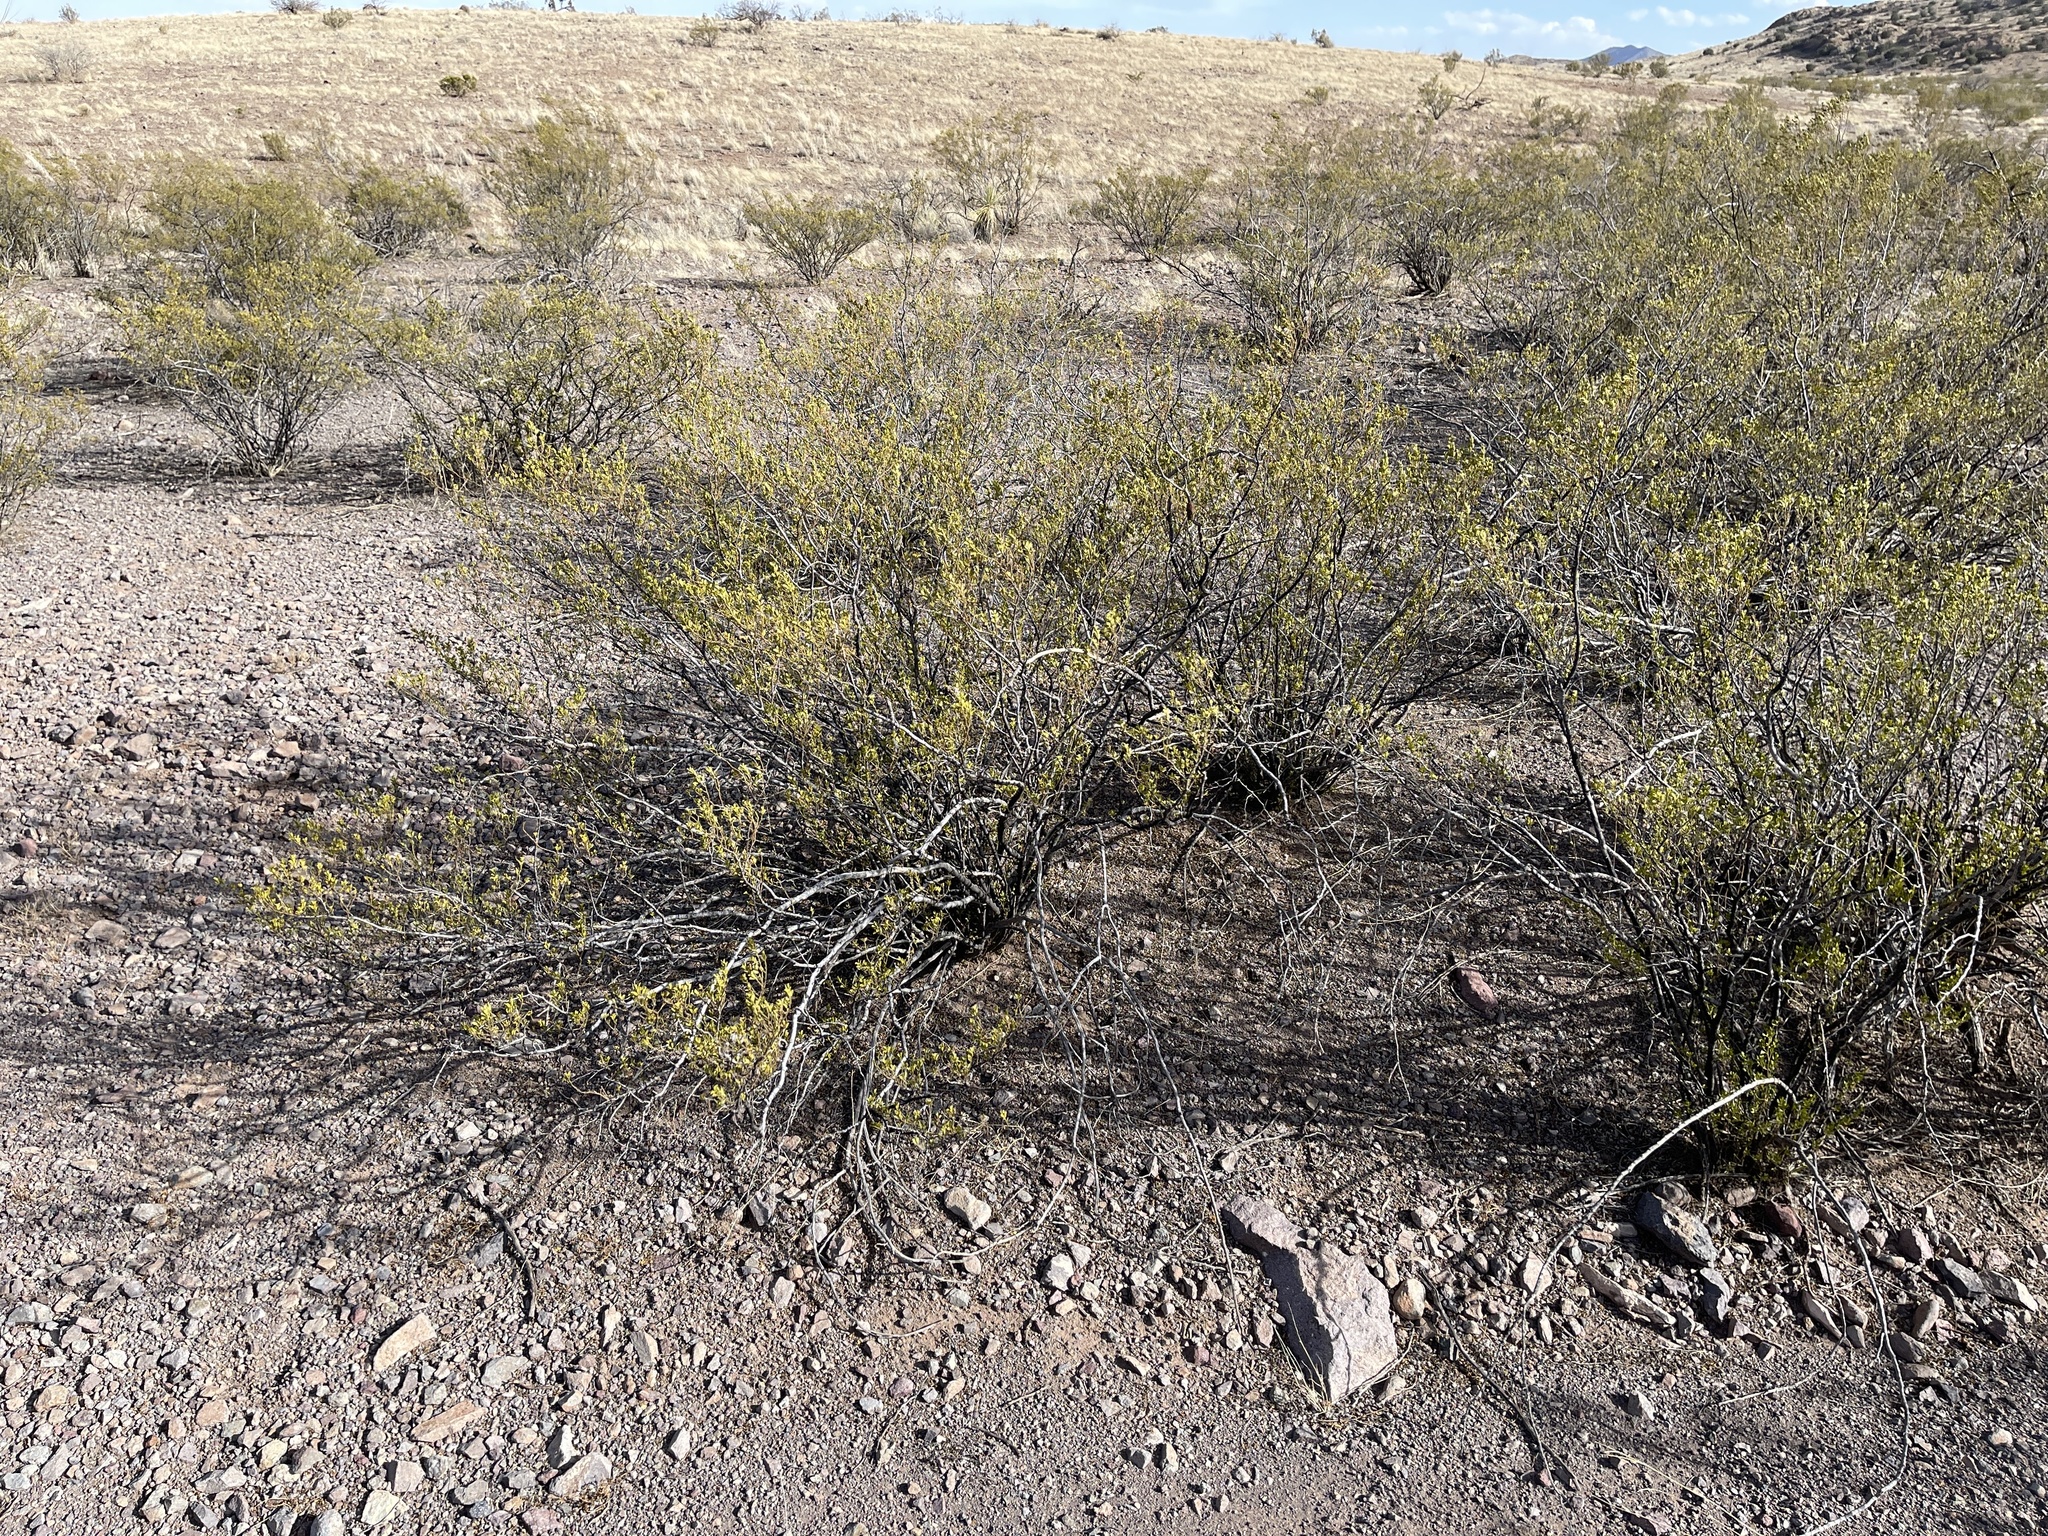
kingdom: Plantae
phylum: Tracheophyta
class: Magnoliopsida
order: Zygophyllales
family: Zygophyllaceae
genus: Larrea
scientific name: Larrea tridentata
